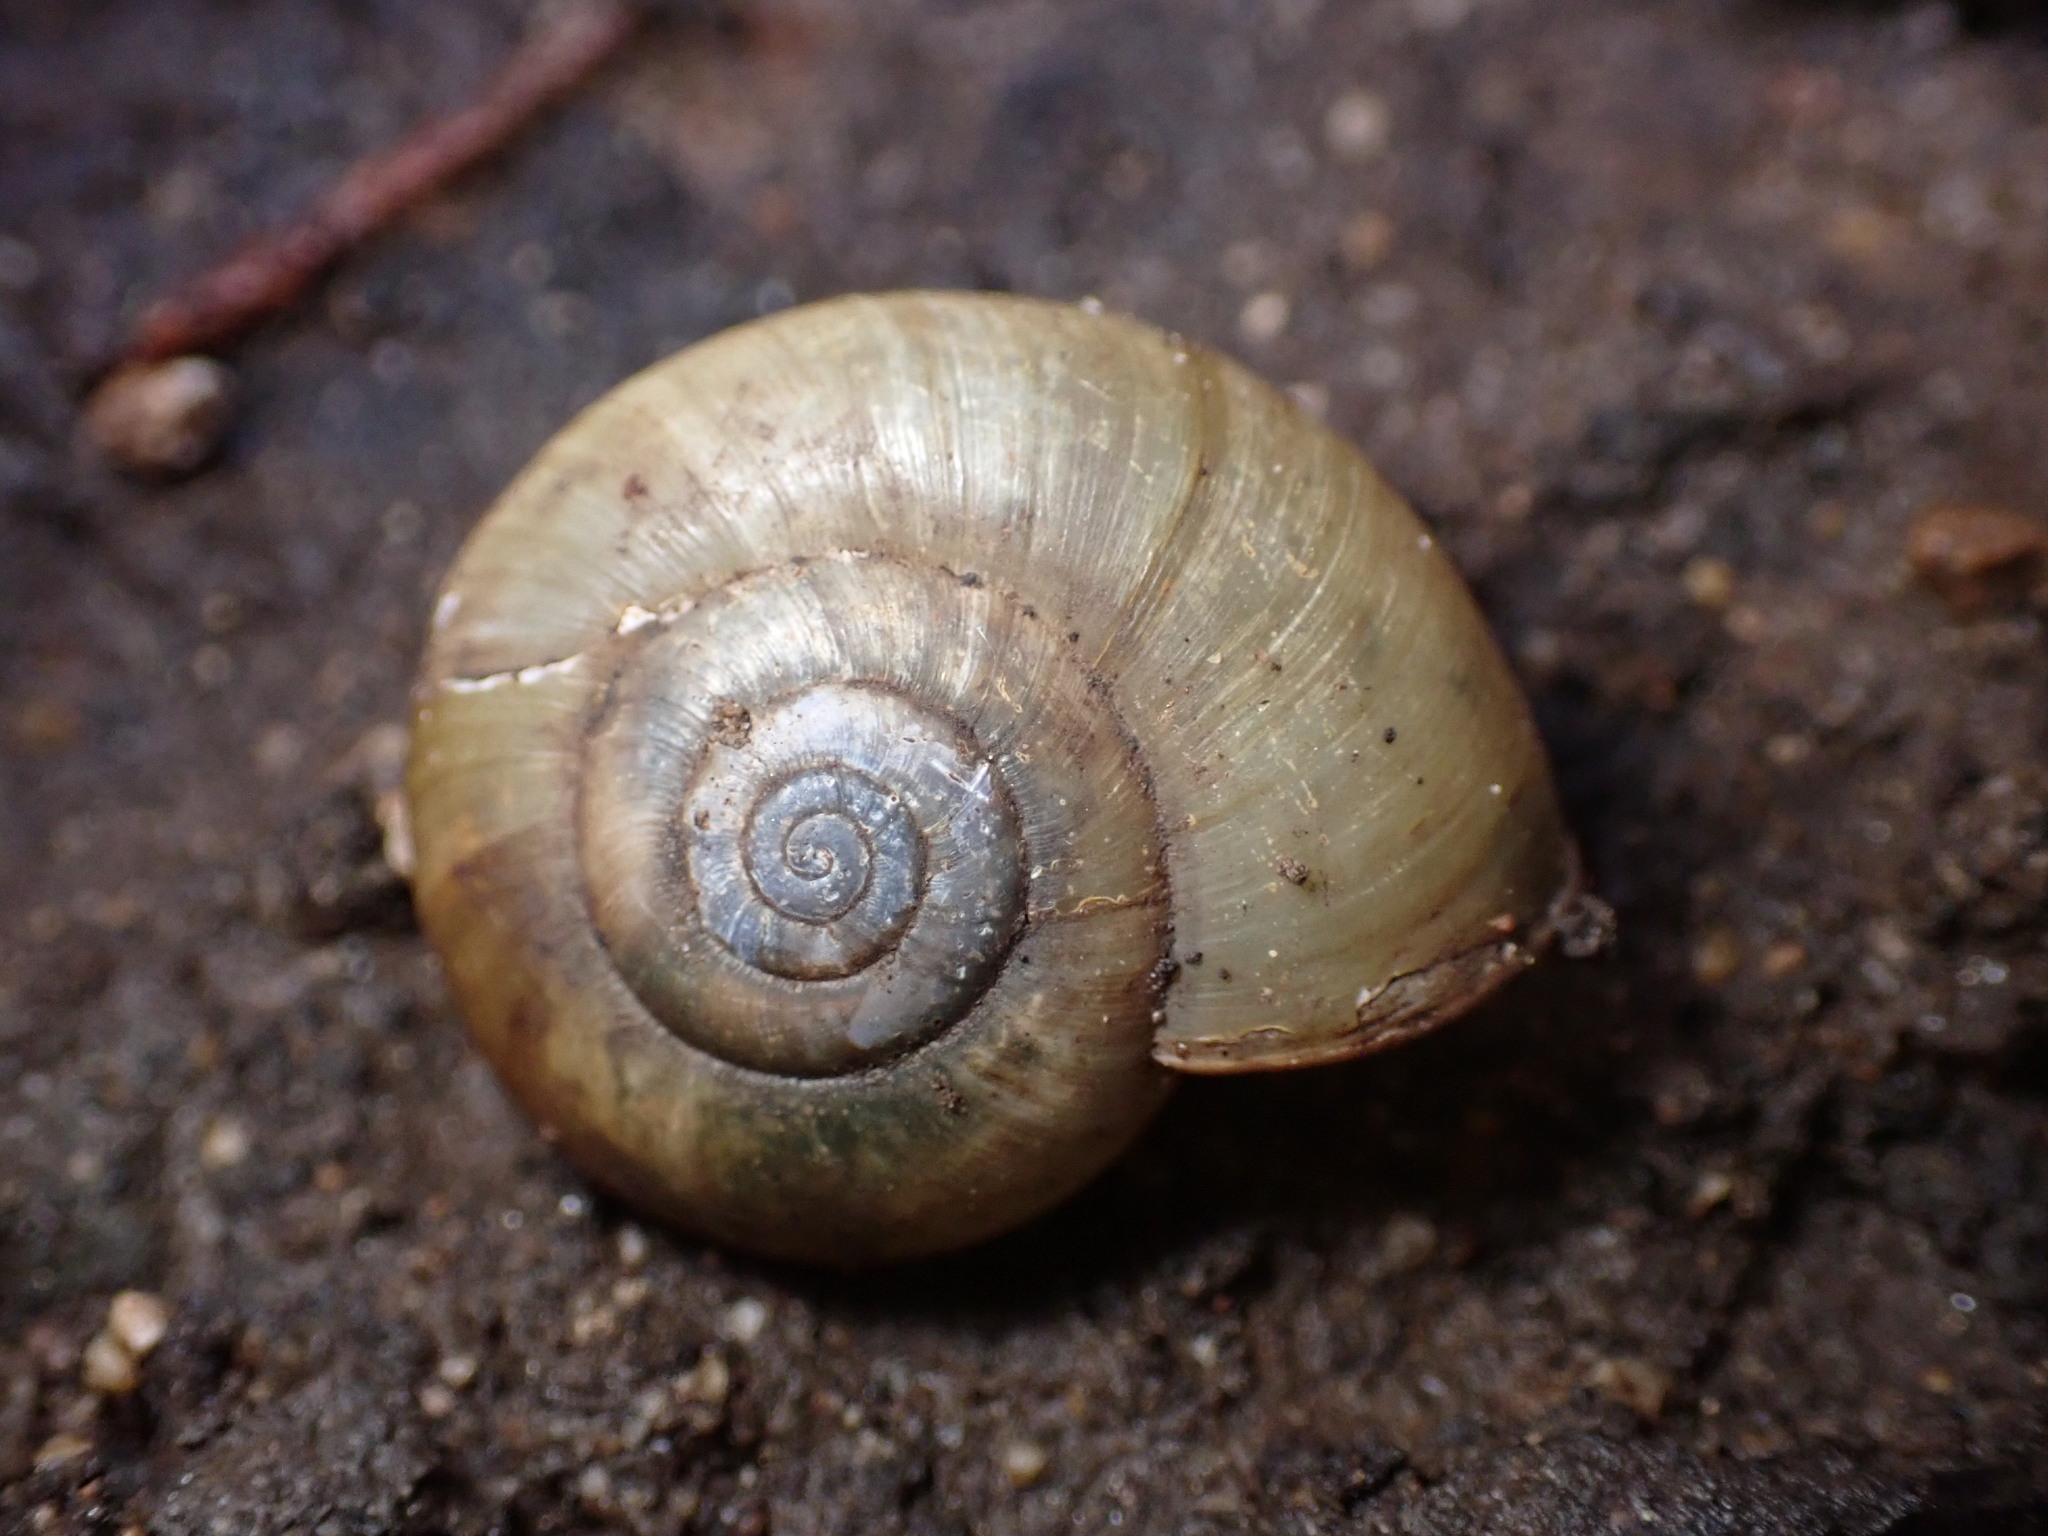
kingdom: Animalia
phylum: Mollusca
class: Gastropoda
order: Stylommatophora
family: Haplotrematidae
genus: Haplotrema
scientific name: Haplotrema minimum
